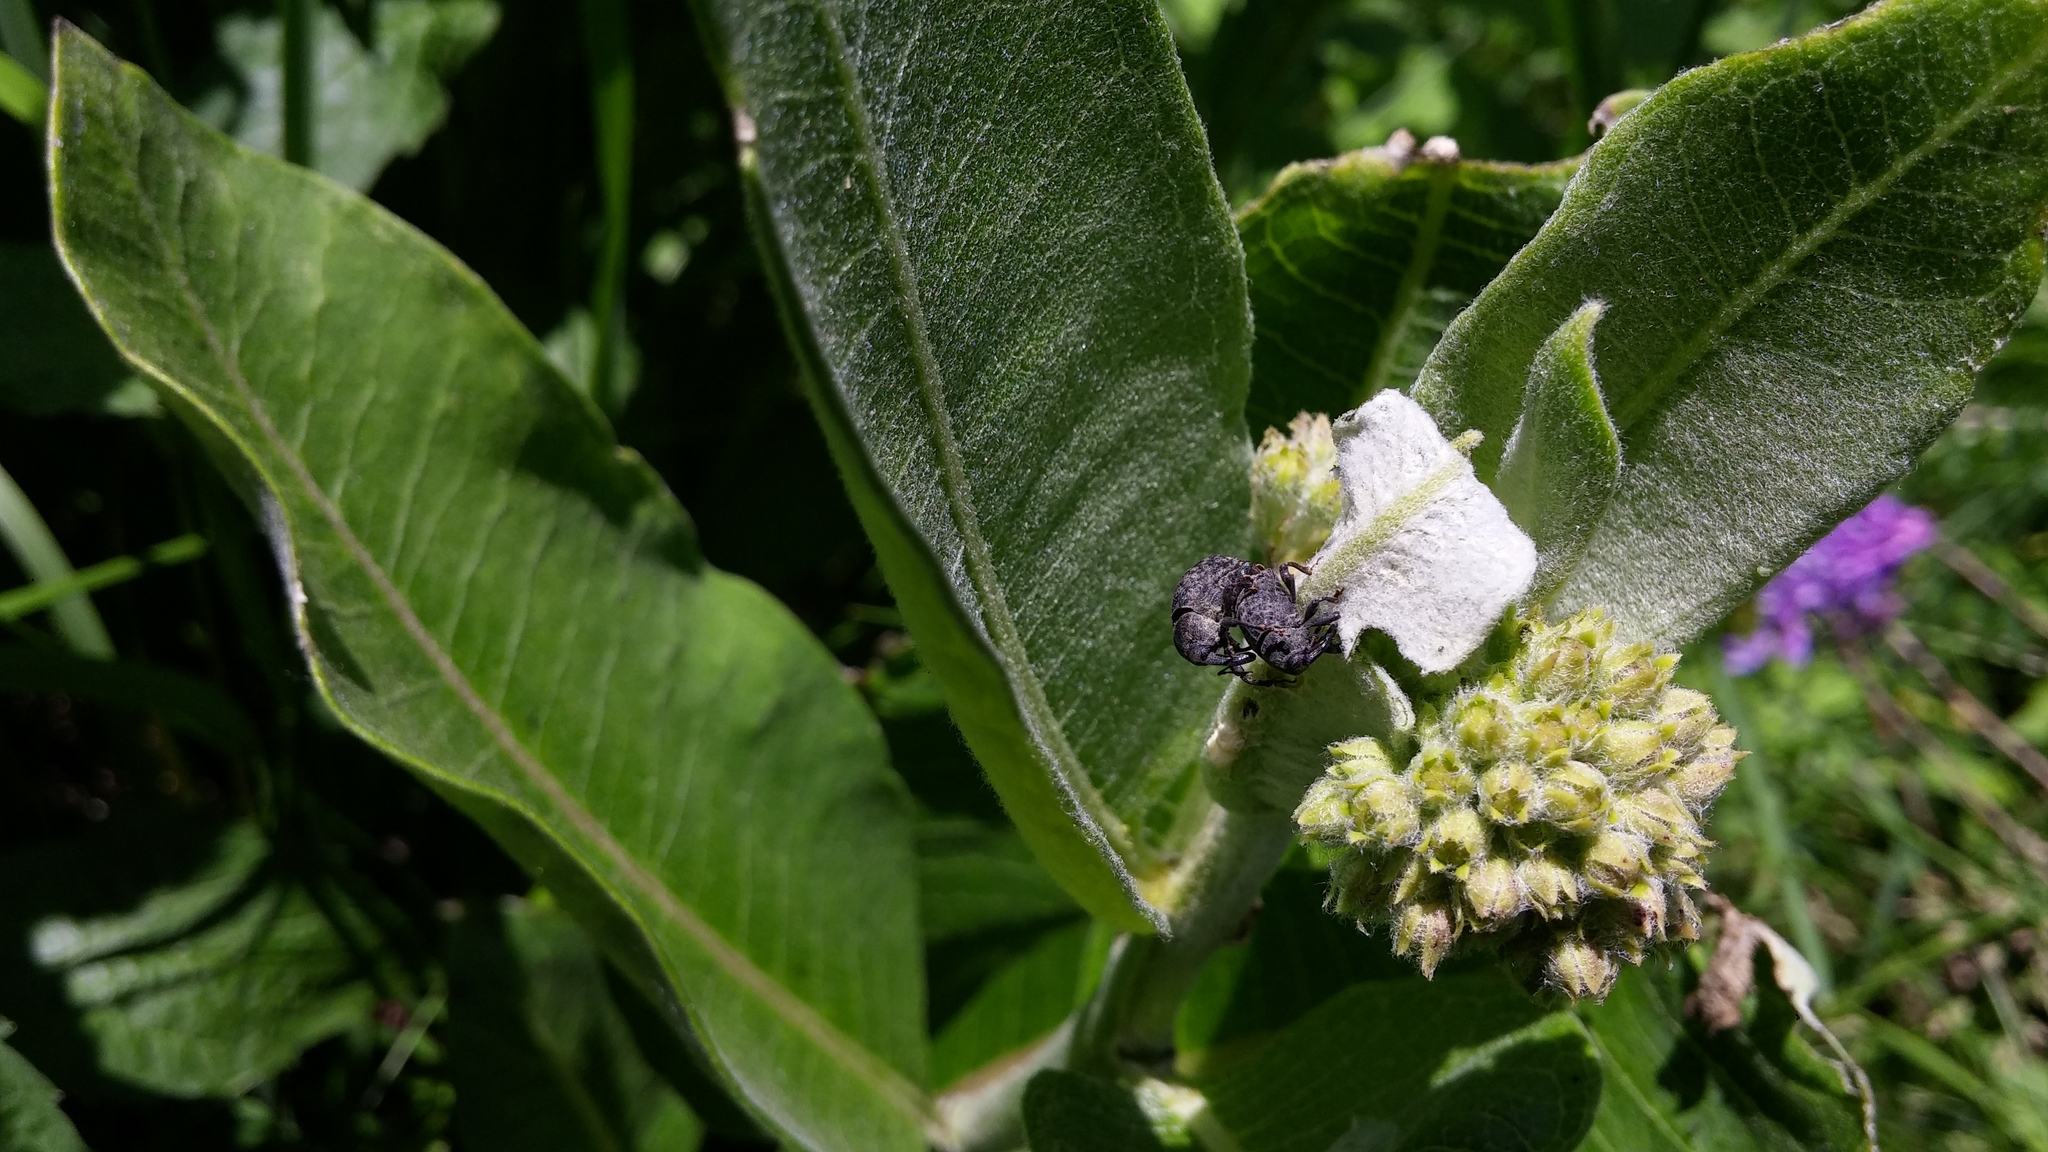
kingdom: Animalia
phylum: Arthropoda
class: Insecta
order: Coleoptera
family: Curculionidae
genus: Rhyssomatus
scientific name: Rhyssomatus lineaticollis
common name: Milkweed stem weevil
